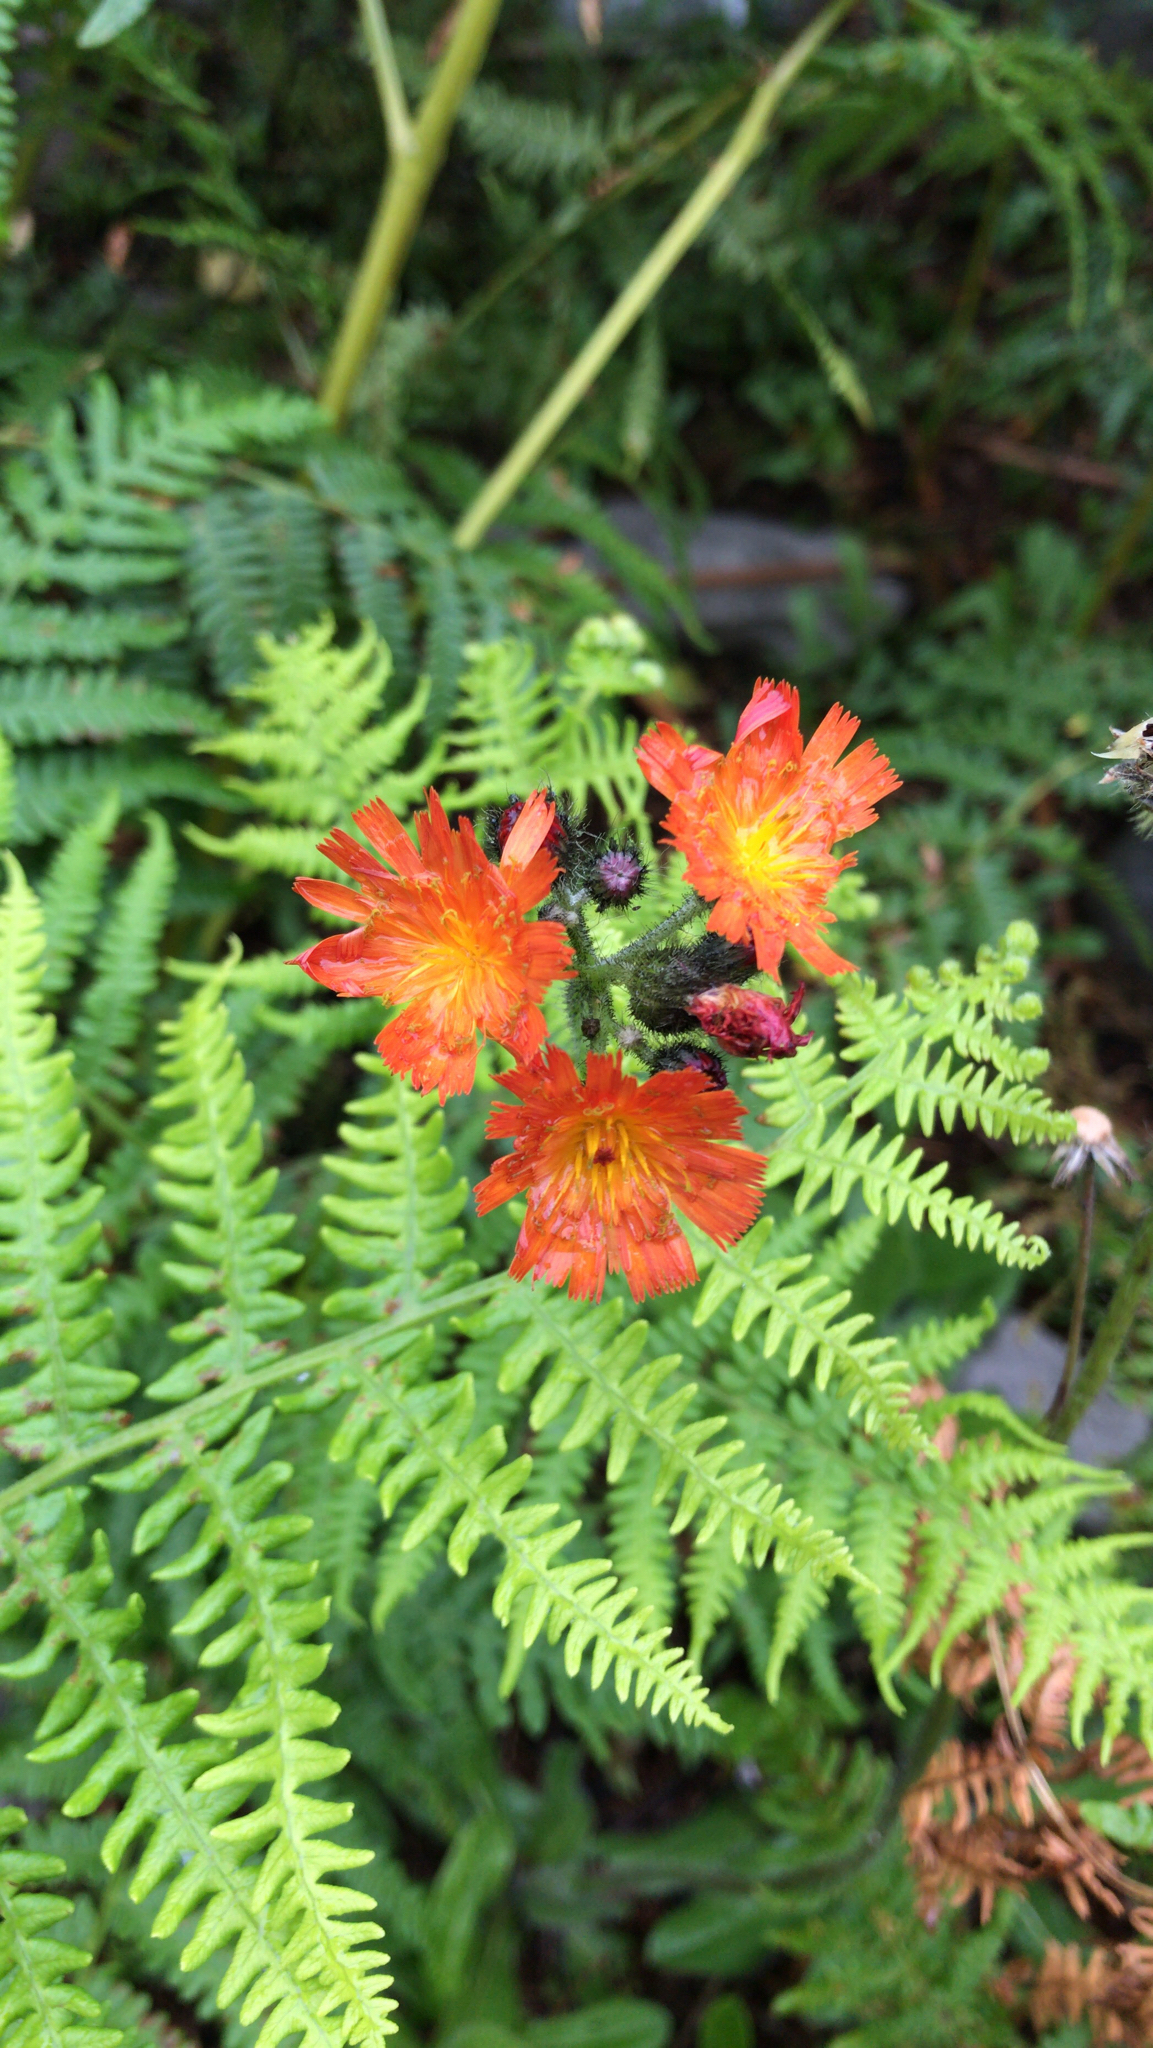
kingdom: Plantae
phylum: Tracheophyta
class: Magnoliopsida
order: Asterales
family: Asteraceae
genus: Pilosella
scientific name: Pilosella aurantiaca
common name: Fox-and-cubs
